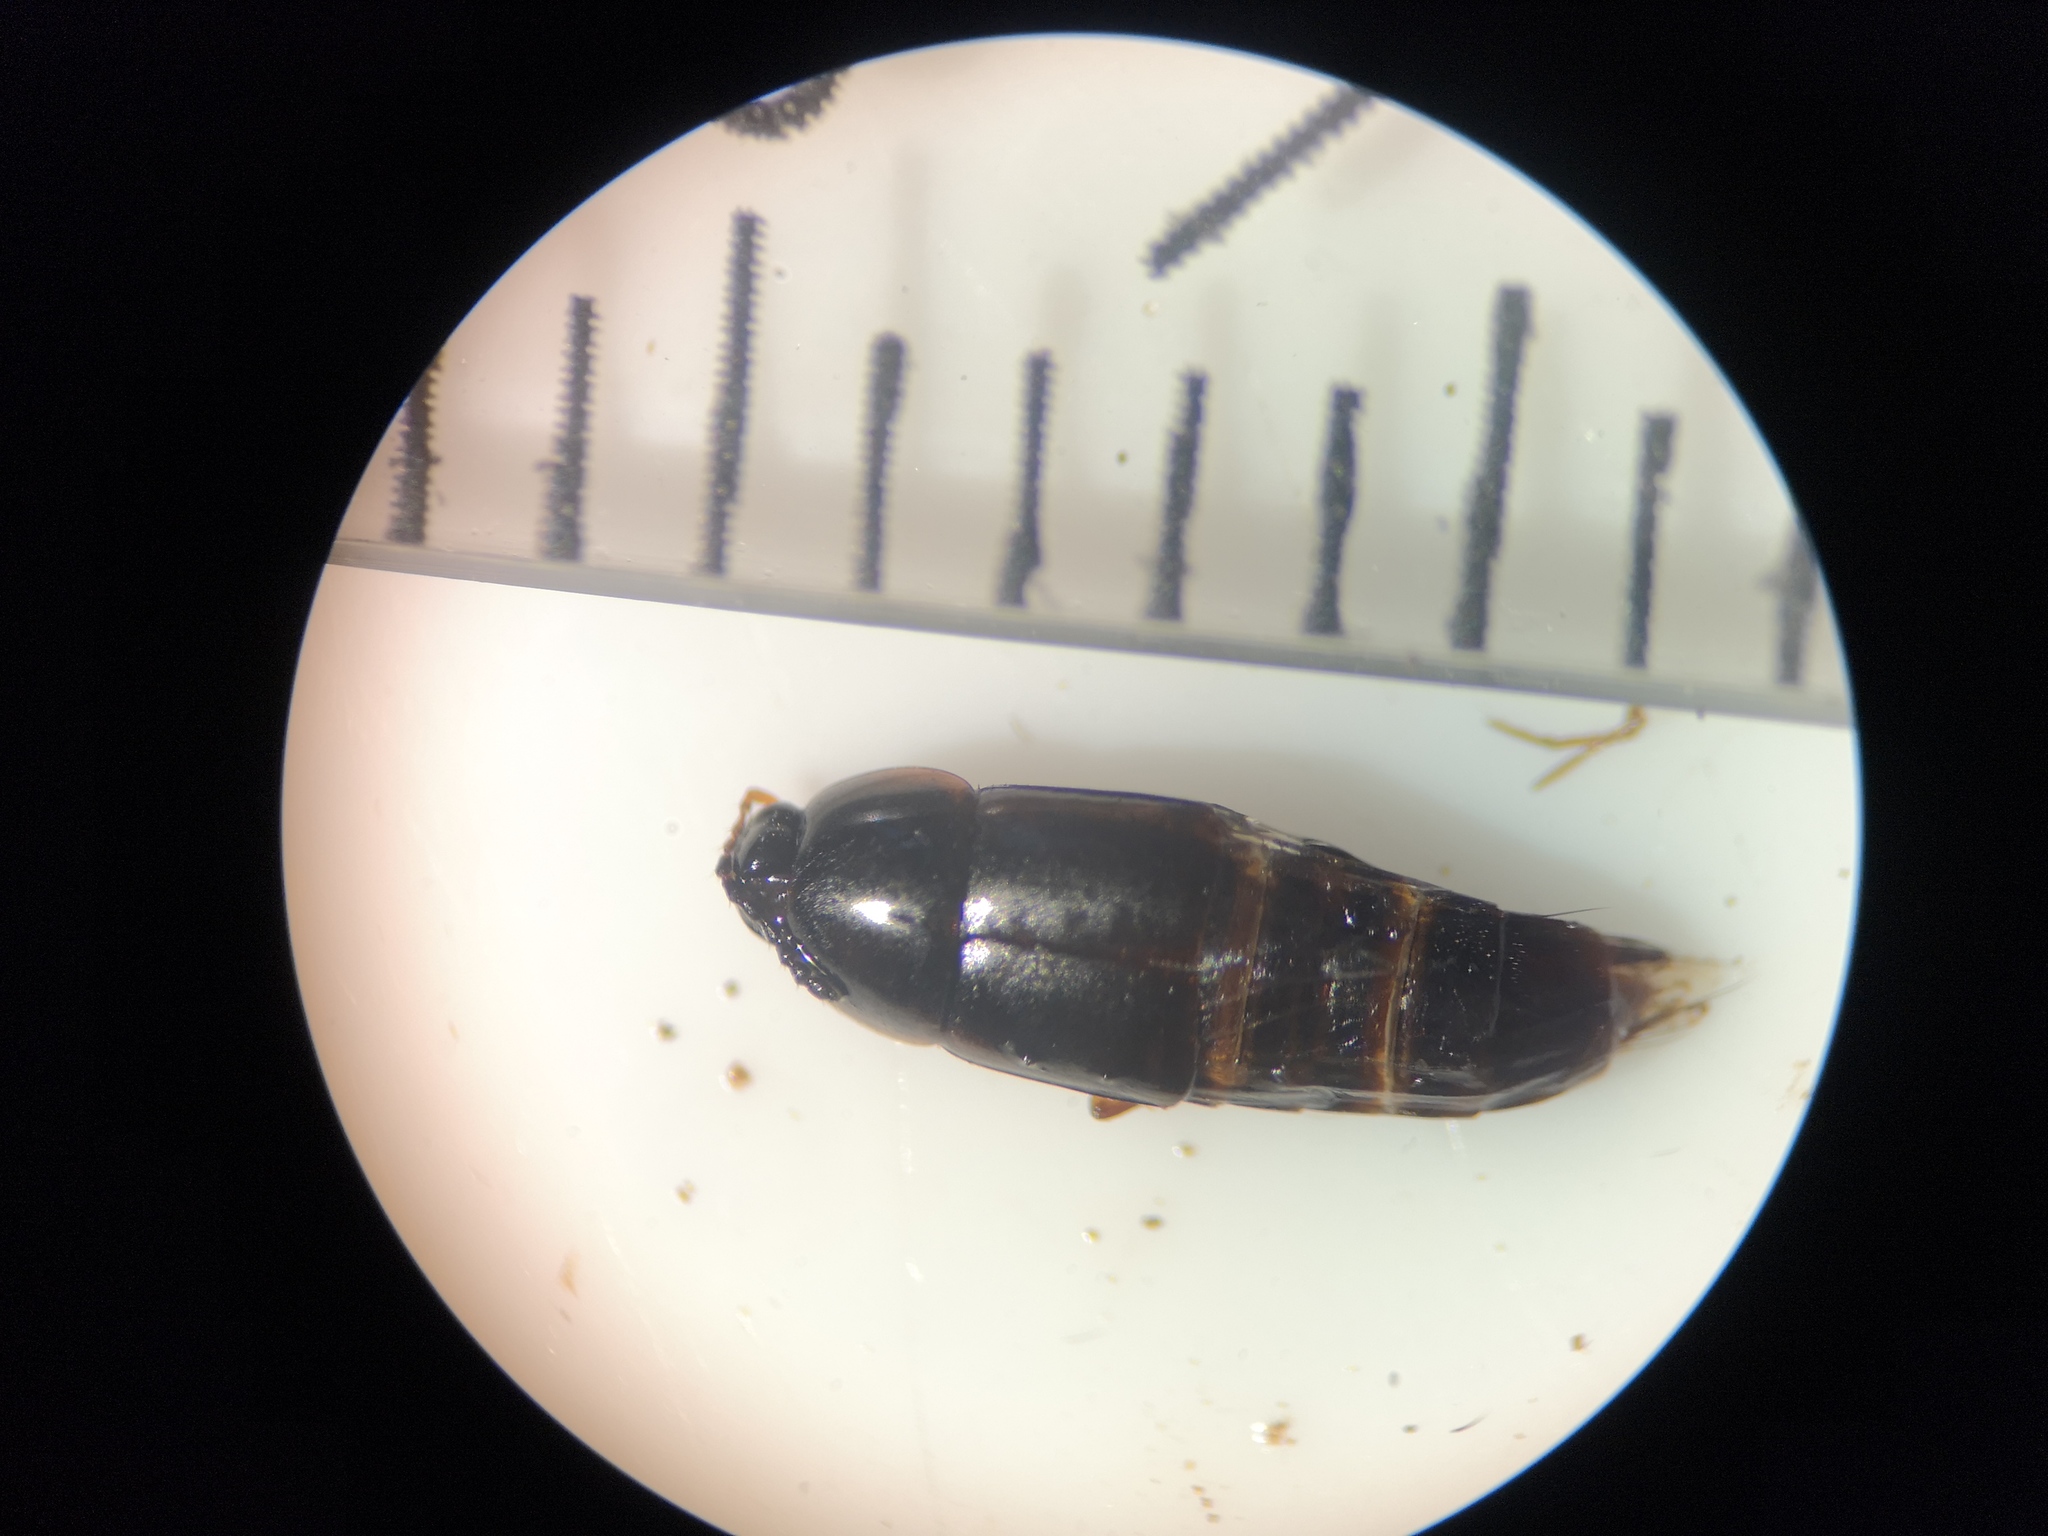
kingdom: Animalia
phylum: Arthropoda
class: Insecta
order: Coleoptera
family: Staphylinidae
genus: Tachinus
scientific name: Tachinus rufipes
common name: Rove beetle
